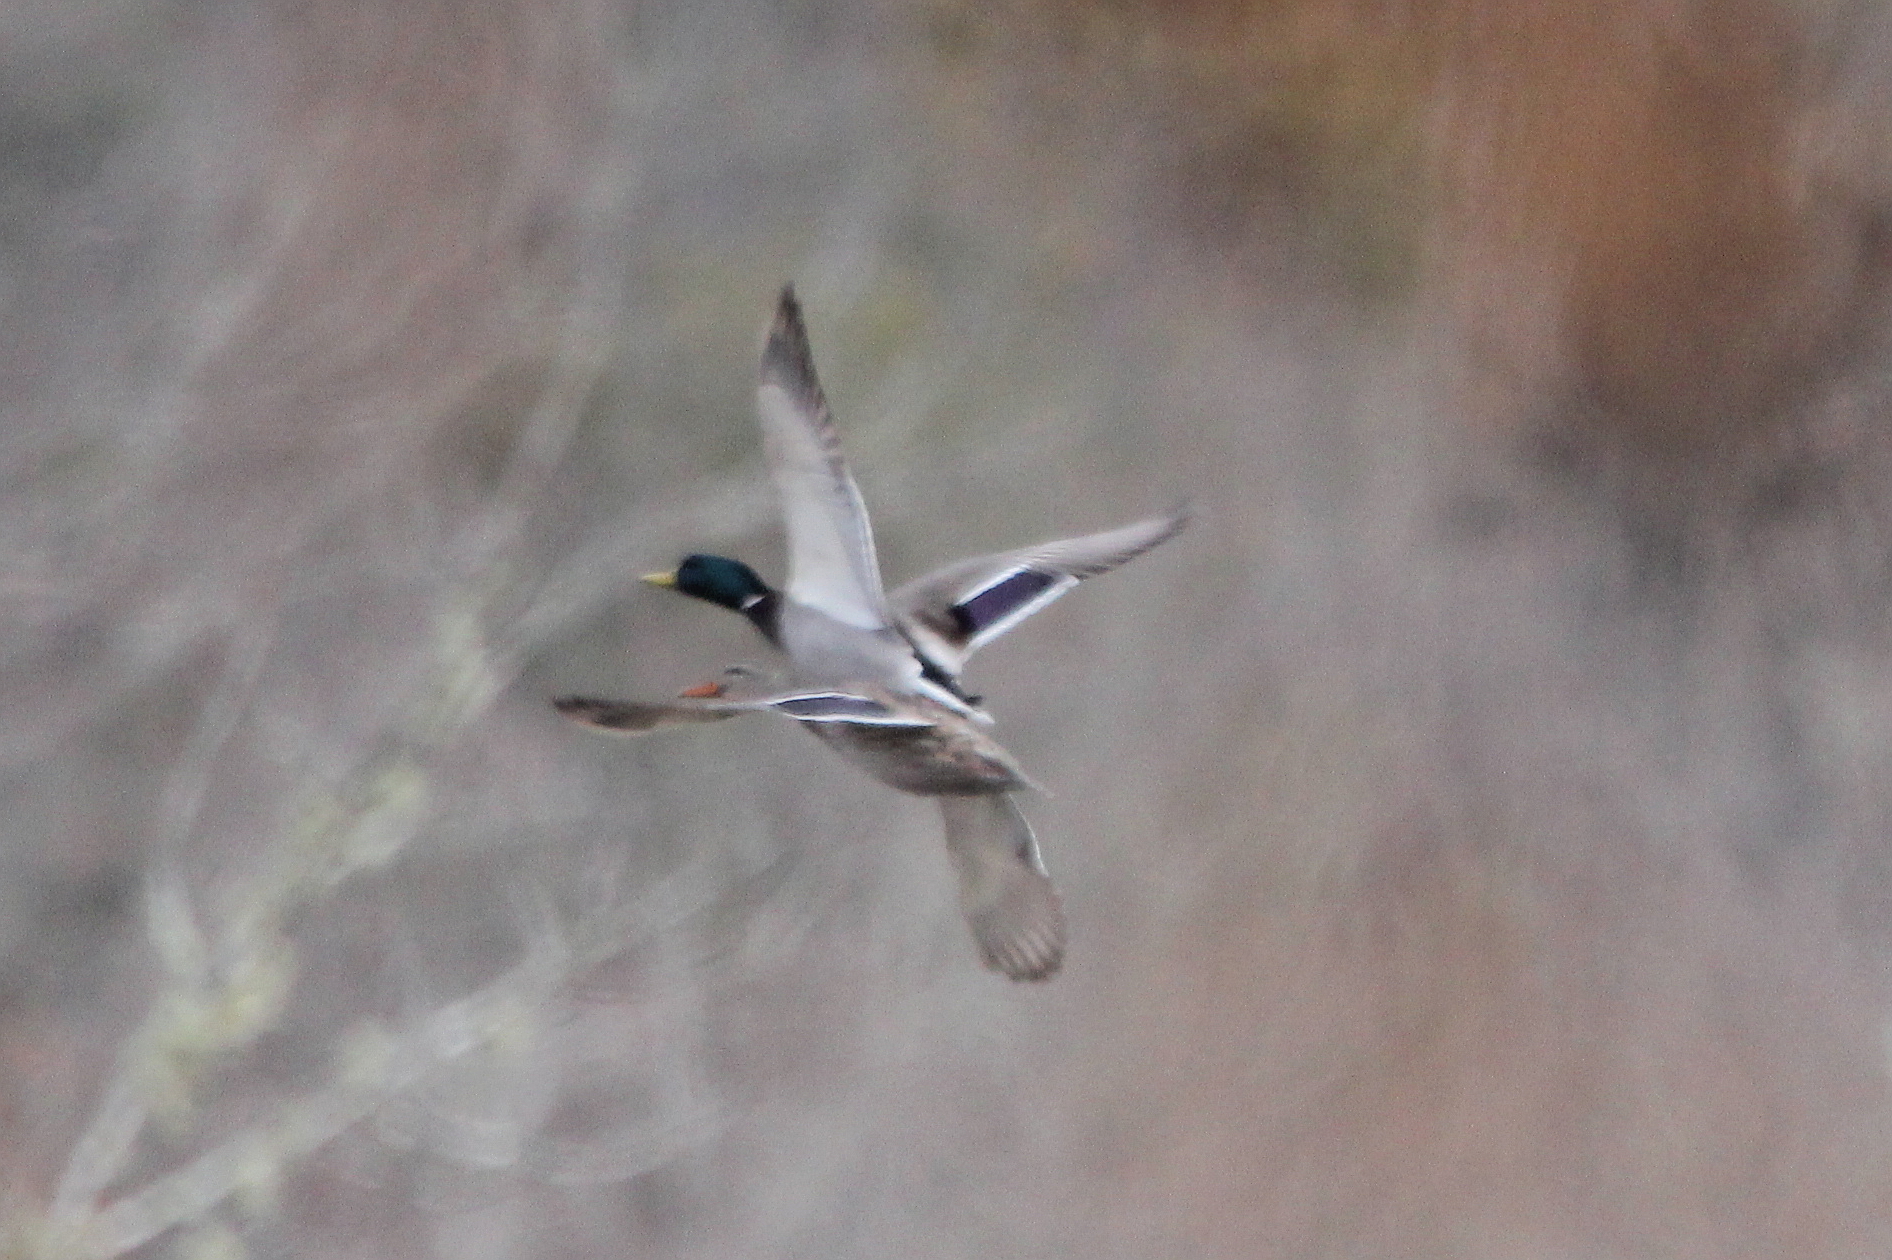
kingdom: Animalia
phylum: Chordata
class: Aves
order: Anseriformes
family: Anatidae
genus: Anas
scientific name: Anas platyrhynchos
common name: Mallard
